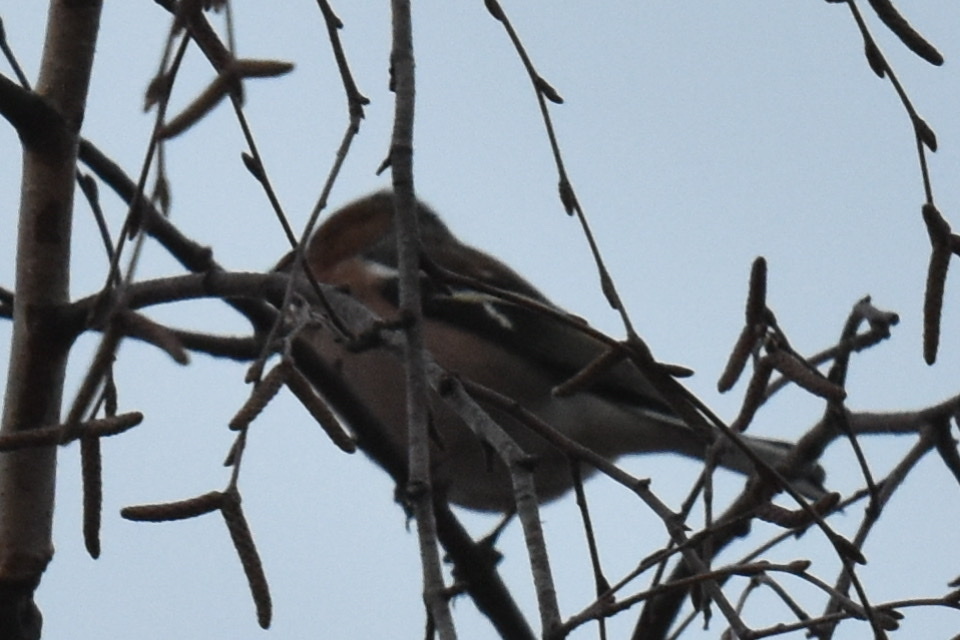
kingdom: Animalia
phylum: Chordata
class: Aves
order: Passeriformes
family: Fringillidae
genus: Fringilla
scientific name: Fringilla coelebs
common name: Common chaffinch
